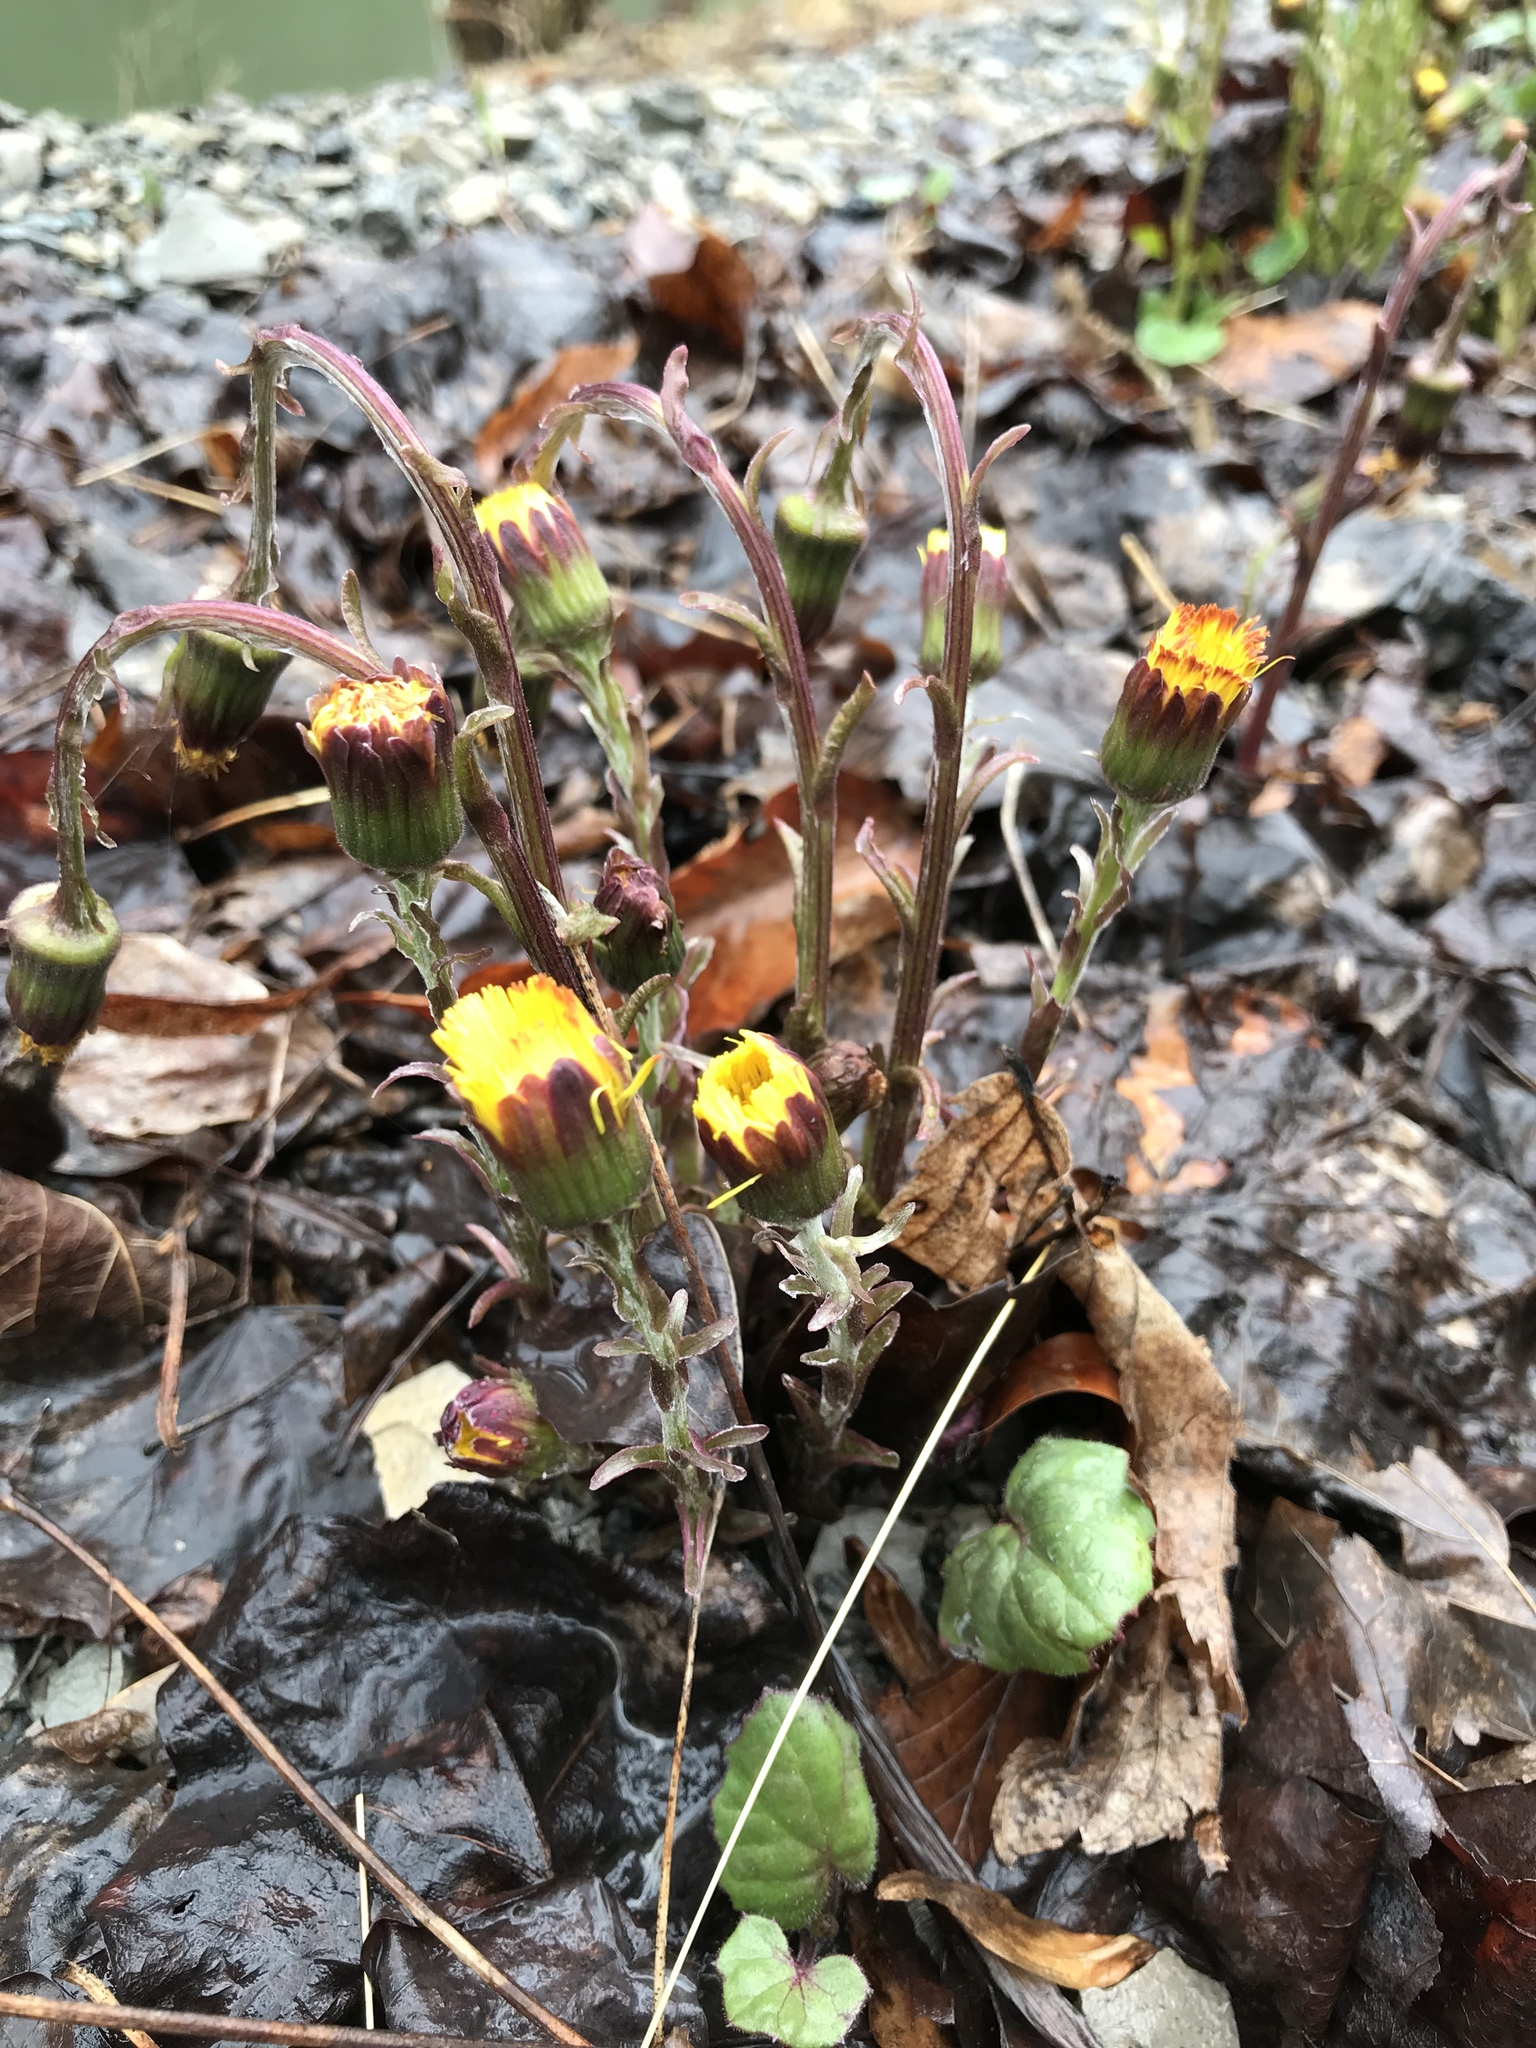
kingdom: Plantae
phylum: Tracheophyta
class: Magnoliopsida
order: Asterales
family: Asteraceae
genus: Tussilago
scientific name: Tussilago farfara
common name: Coltsfoot
